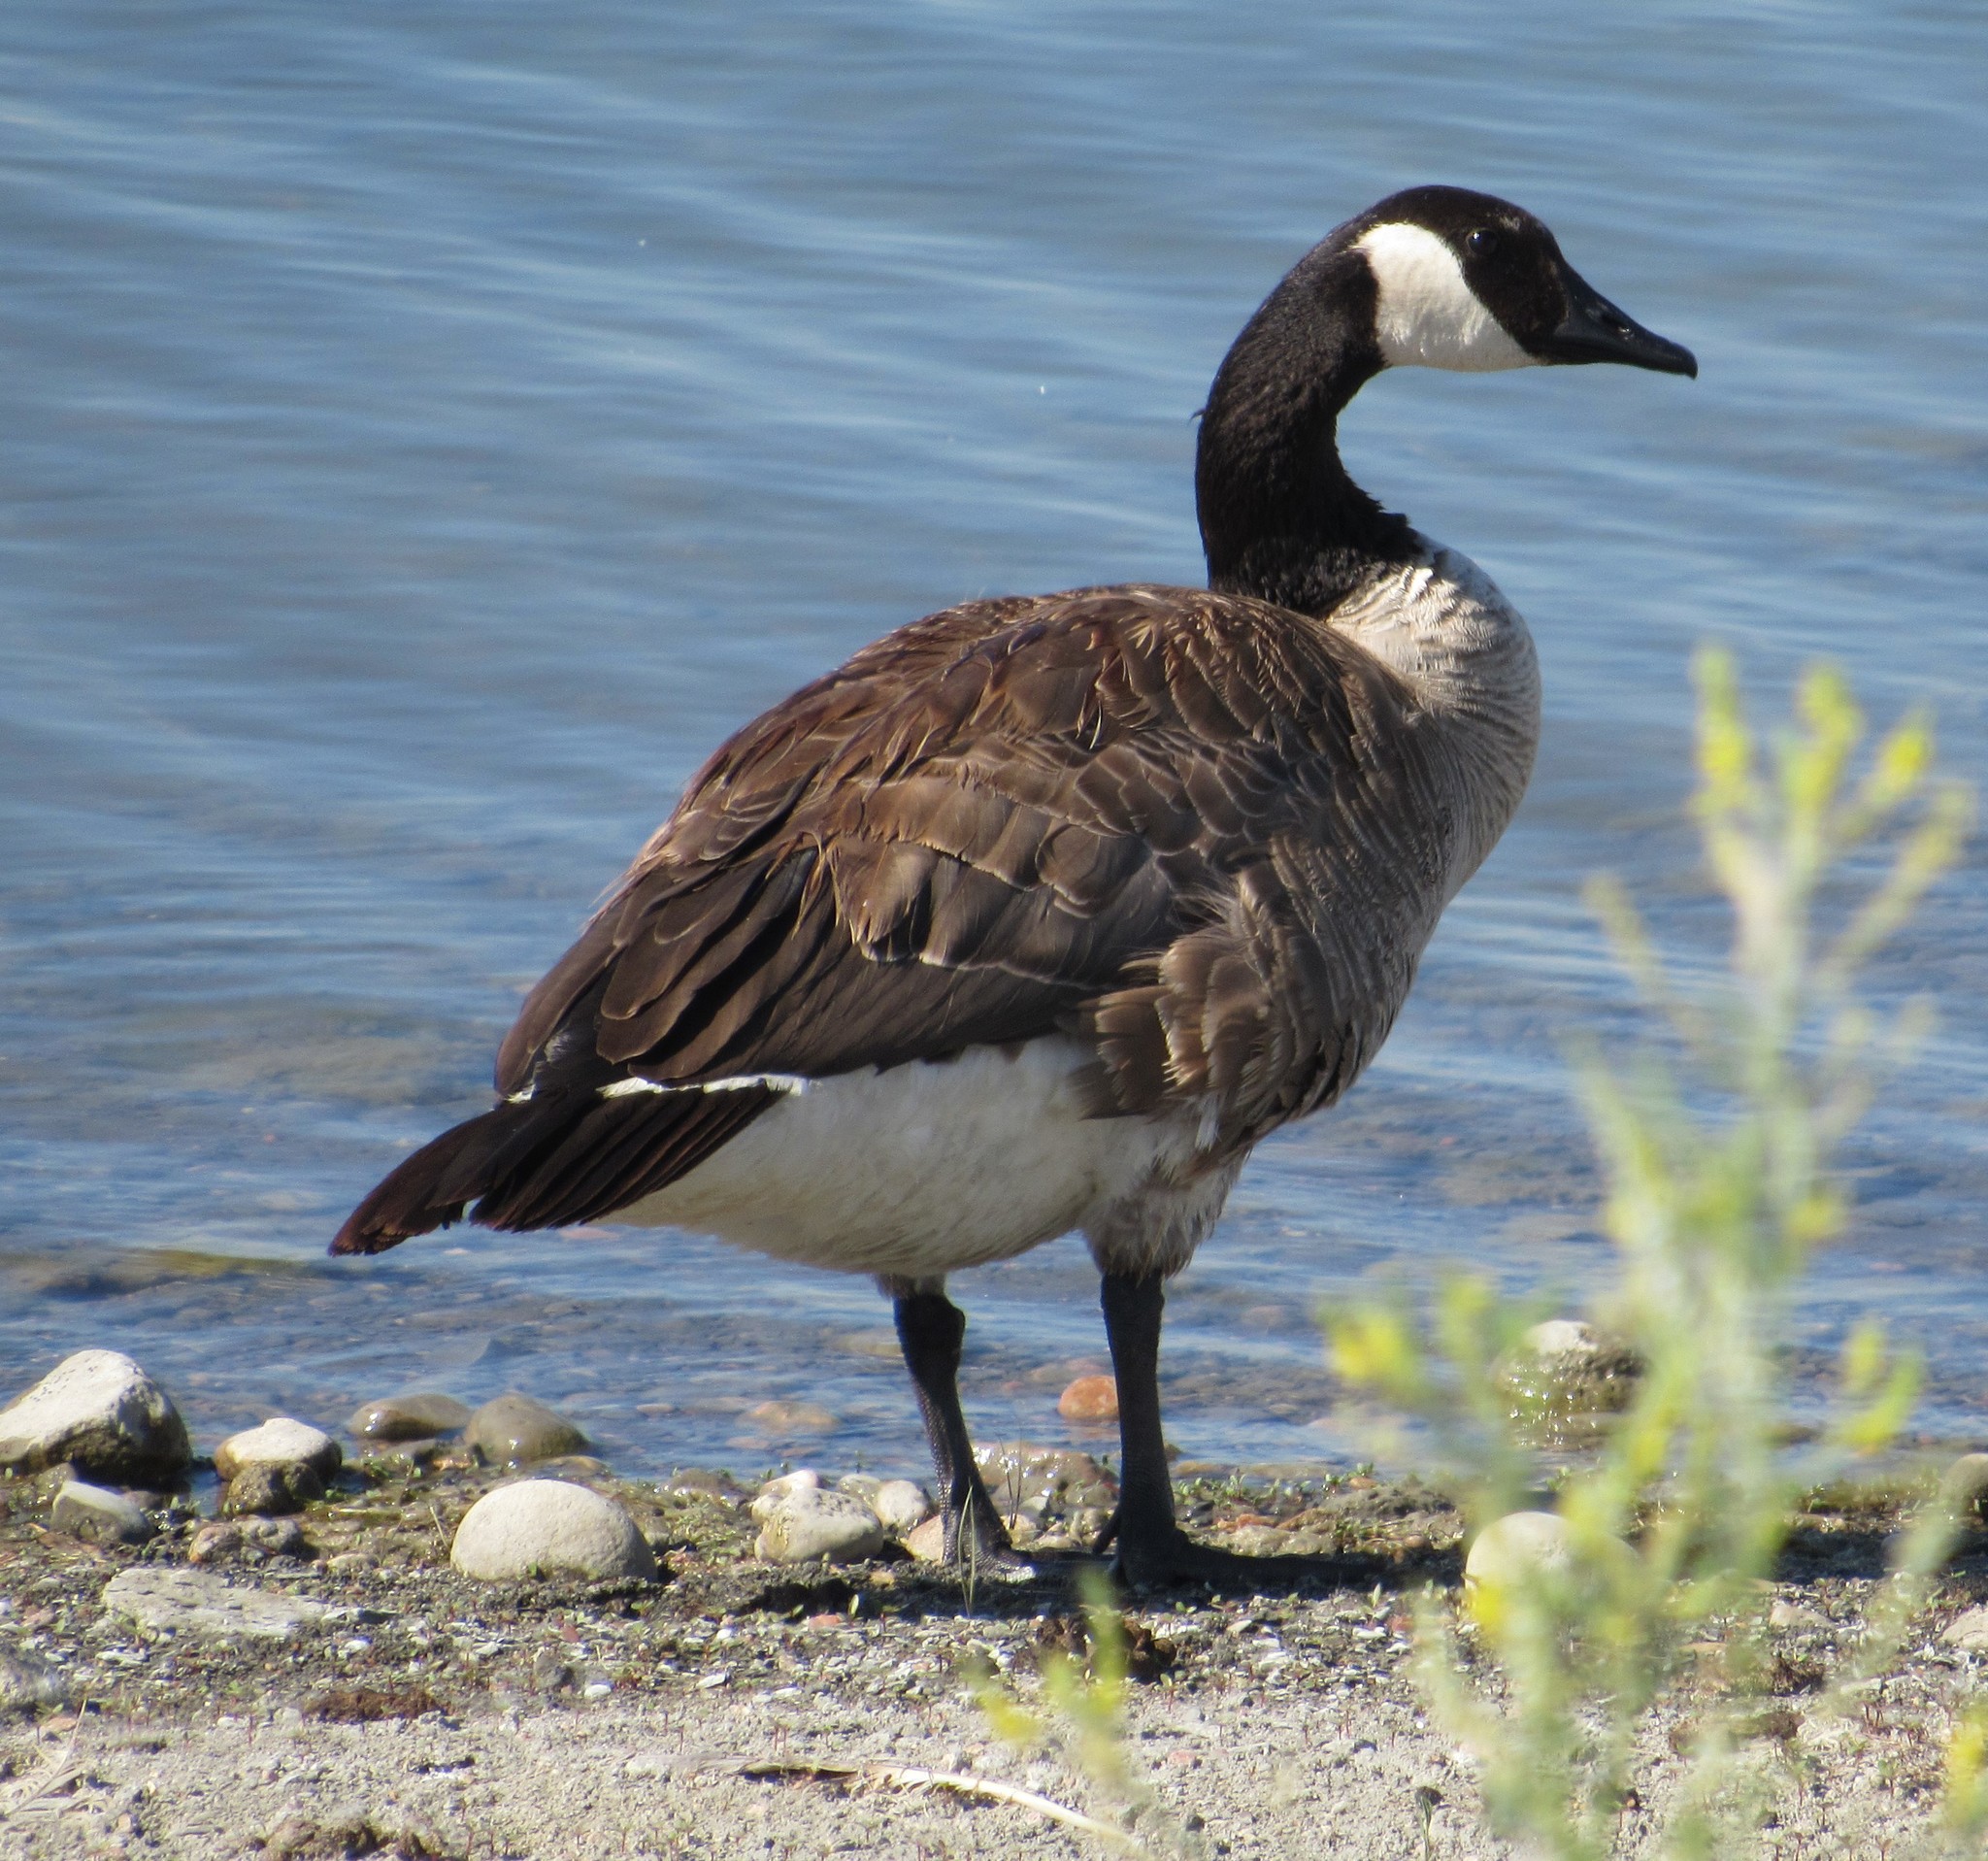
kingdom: Animalia
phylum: Chordata
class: Aves
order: Anseriformes
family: Anatidae
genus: Branta
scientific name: Branta canadensis
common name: Canada goose
